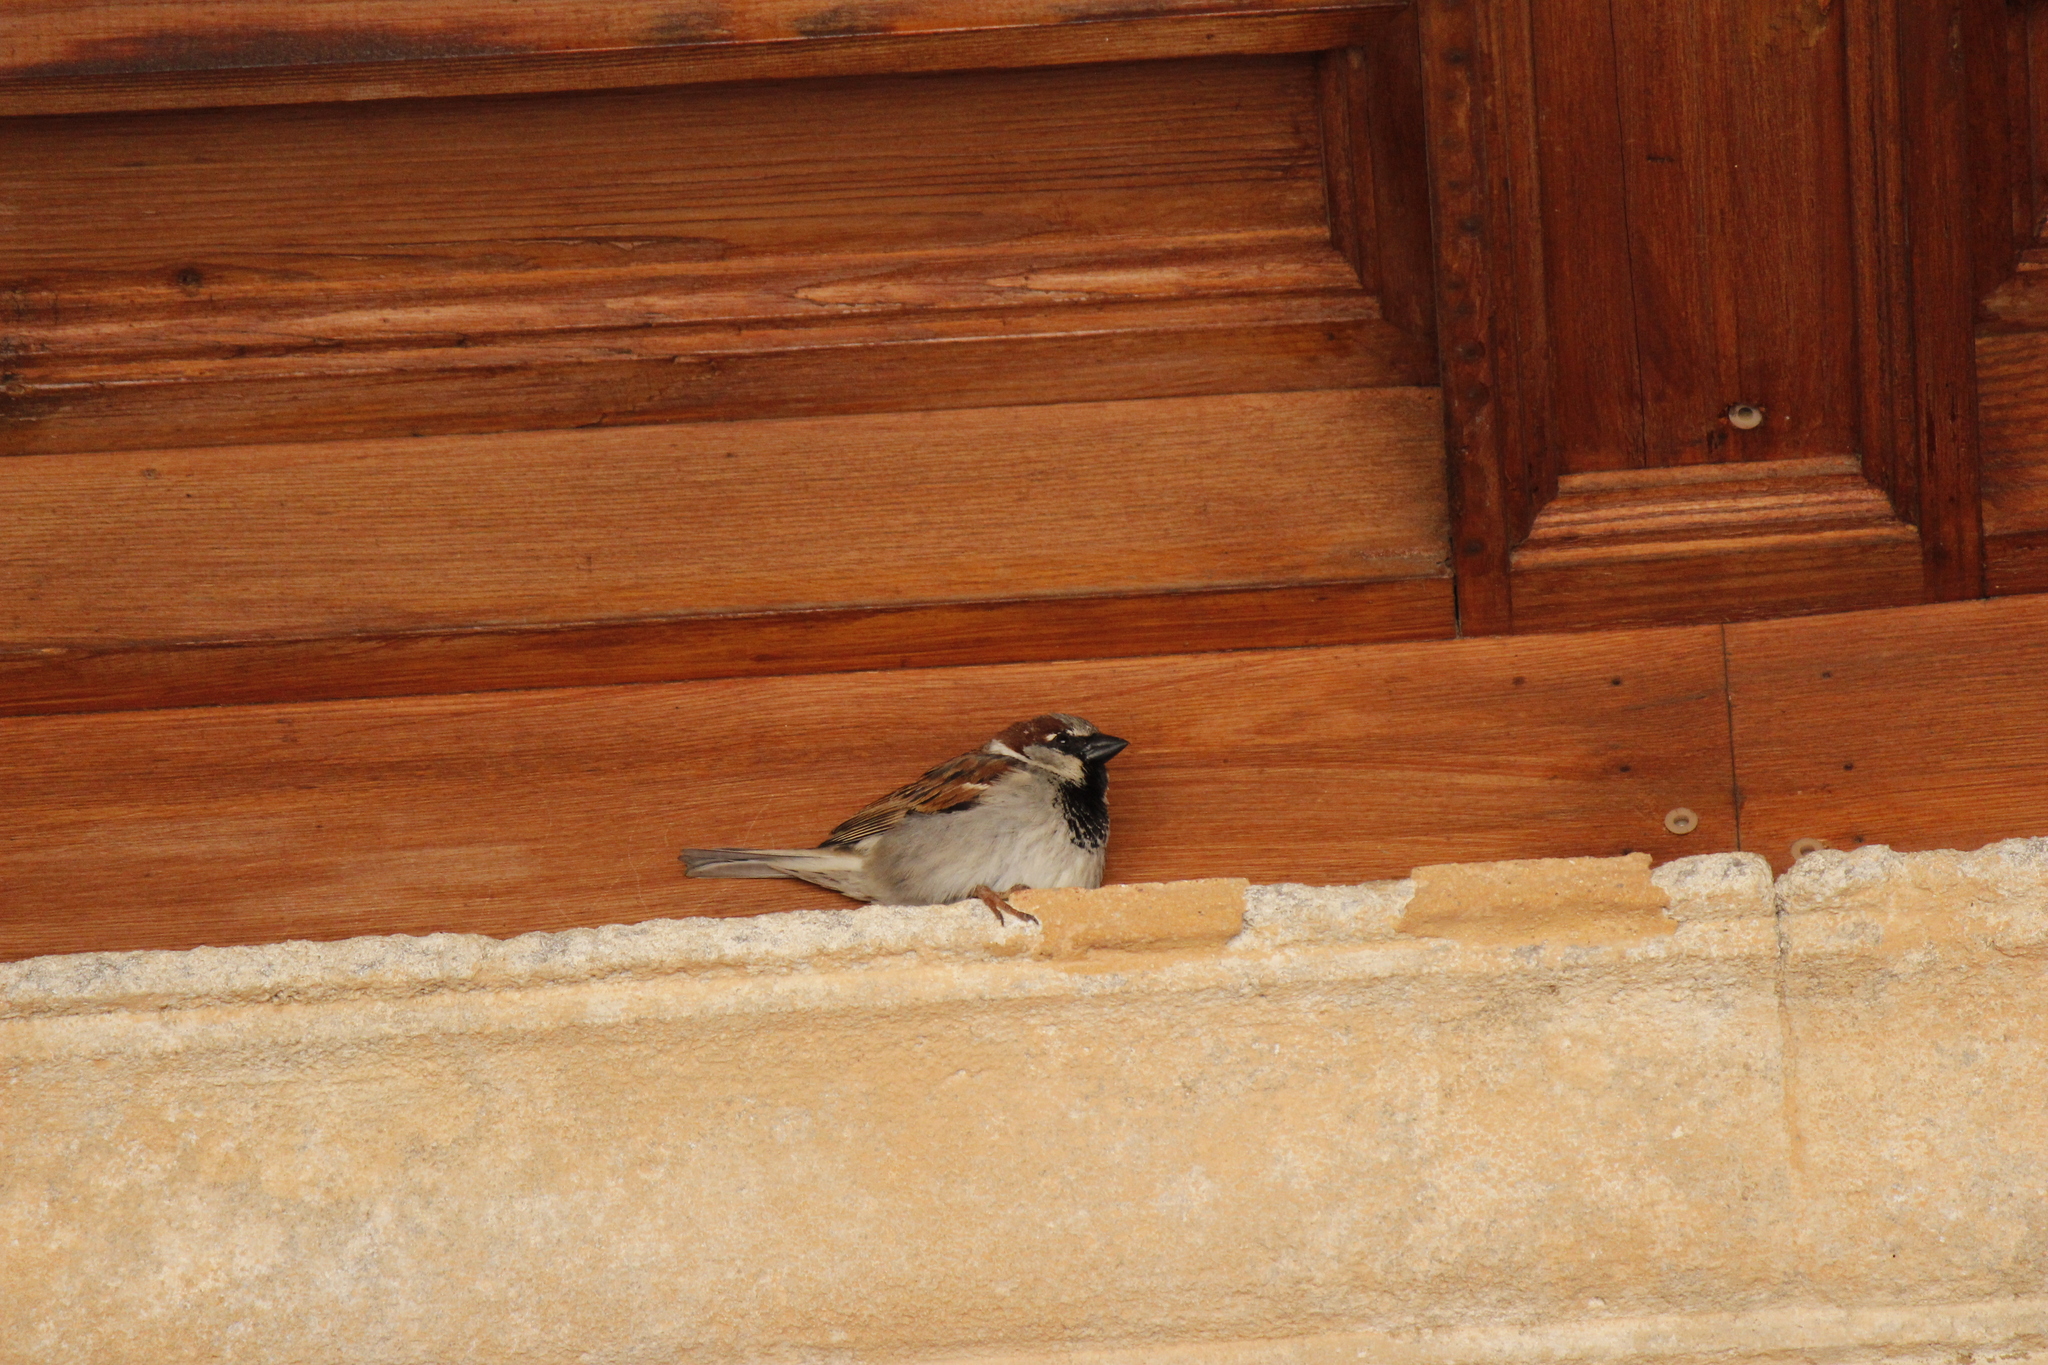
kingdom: Animalia
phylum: Chordata
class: Aves
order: Passeriformes
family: Passeridae
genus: Passer
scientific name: Passer domesticus
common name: House sparrow
